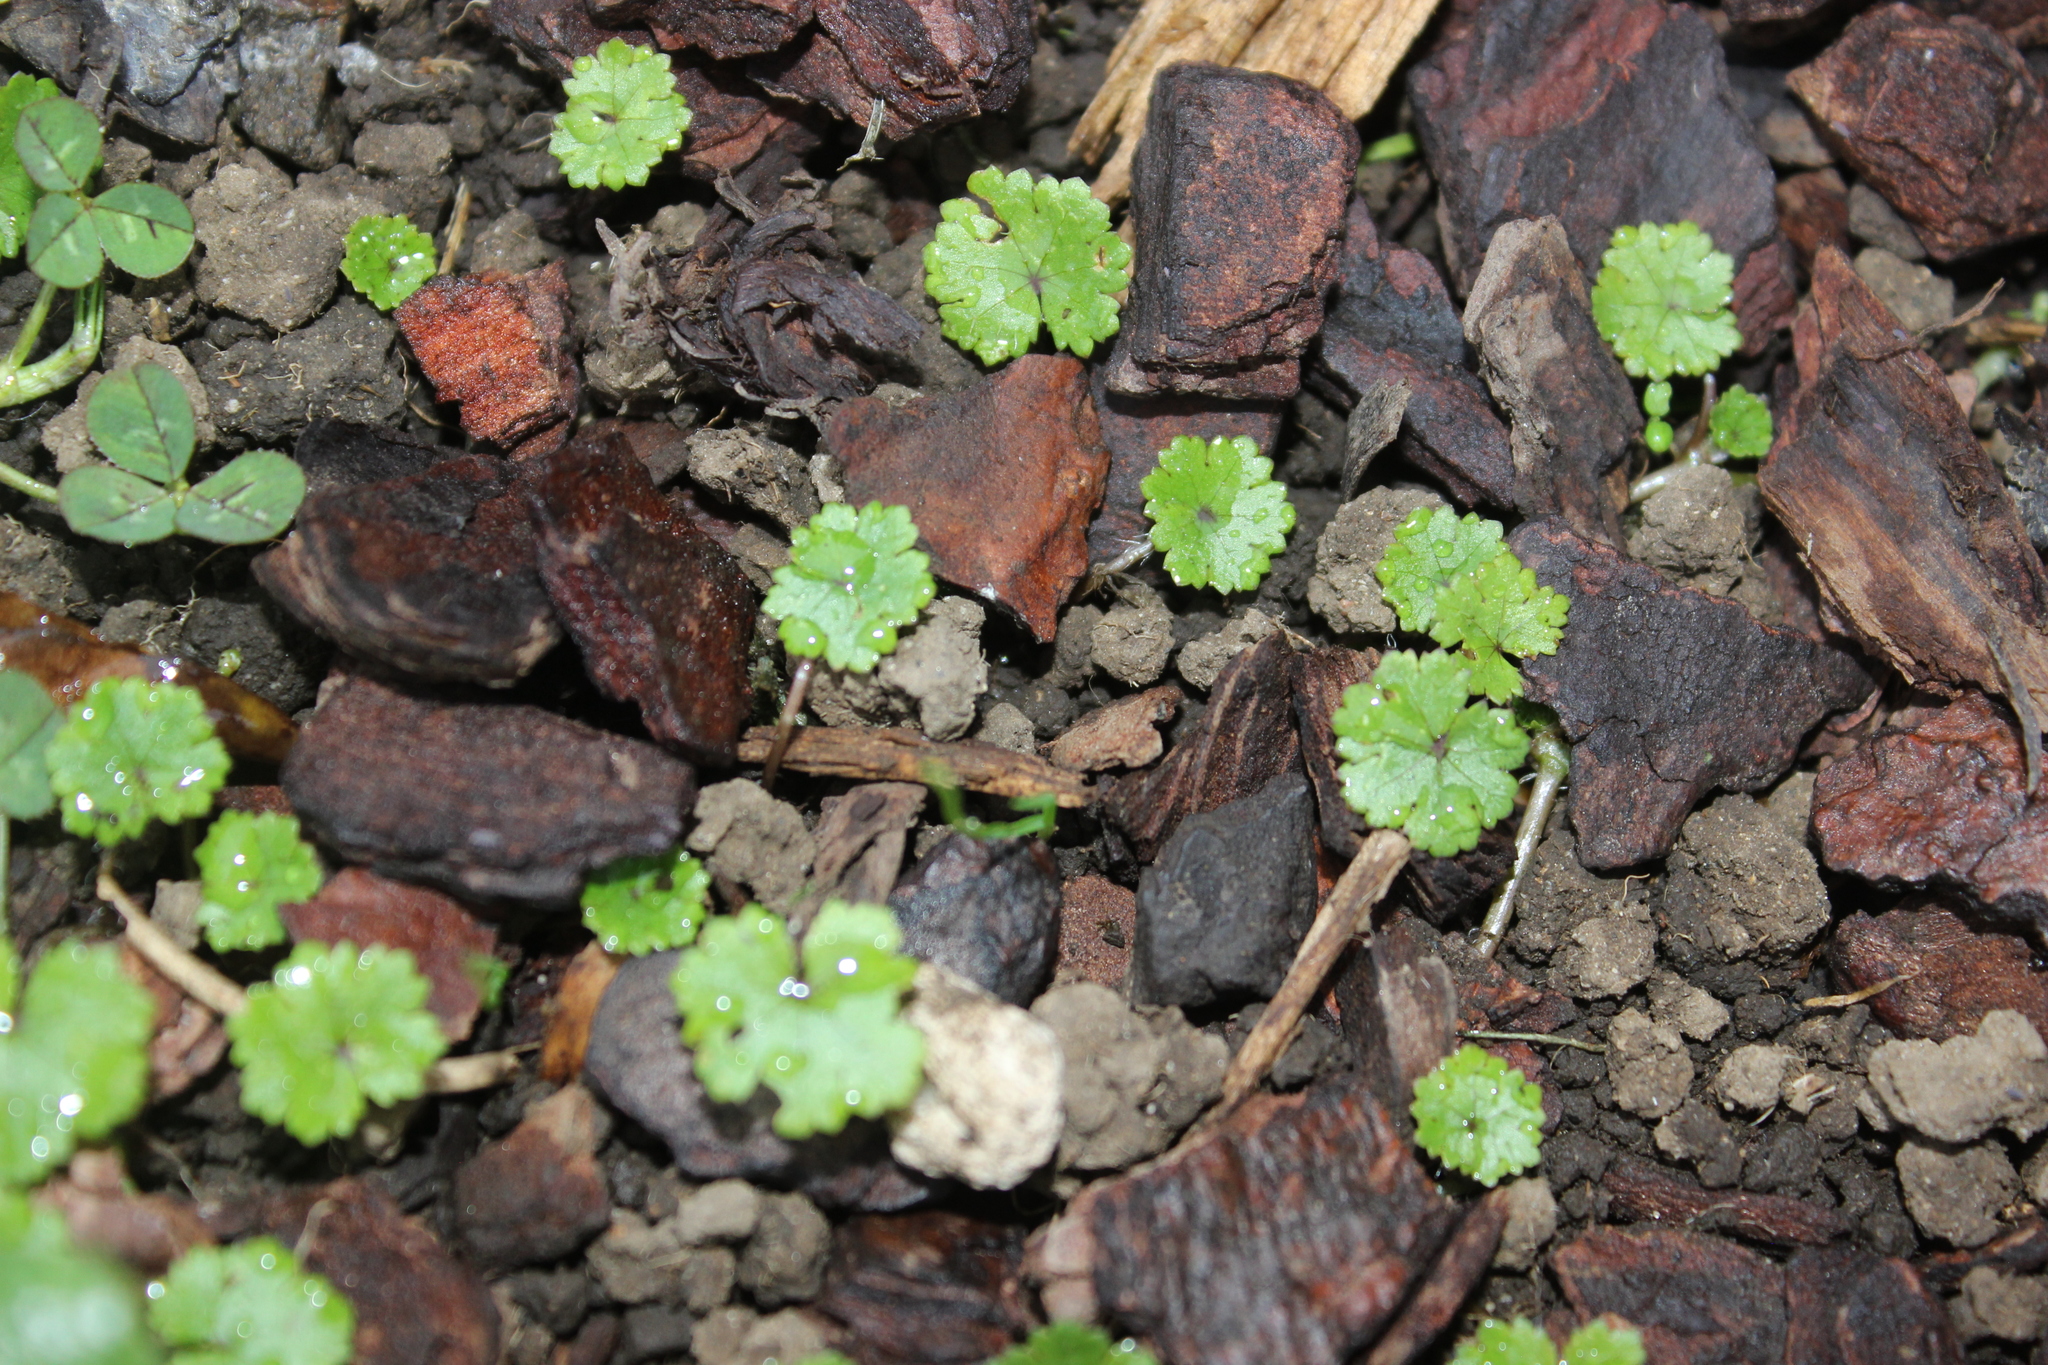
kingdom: Plantae
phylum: Tracheophyta
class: Magnoliopsida
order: Apiales
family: Araliaceae
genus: Hydrocotyle
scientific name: Hydrocotyle microphylla
